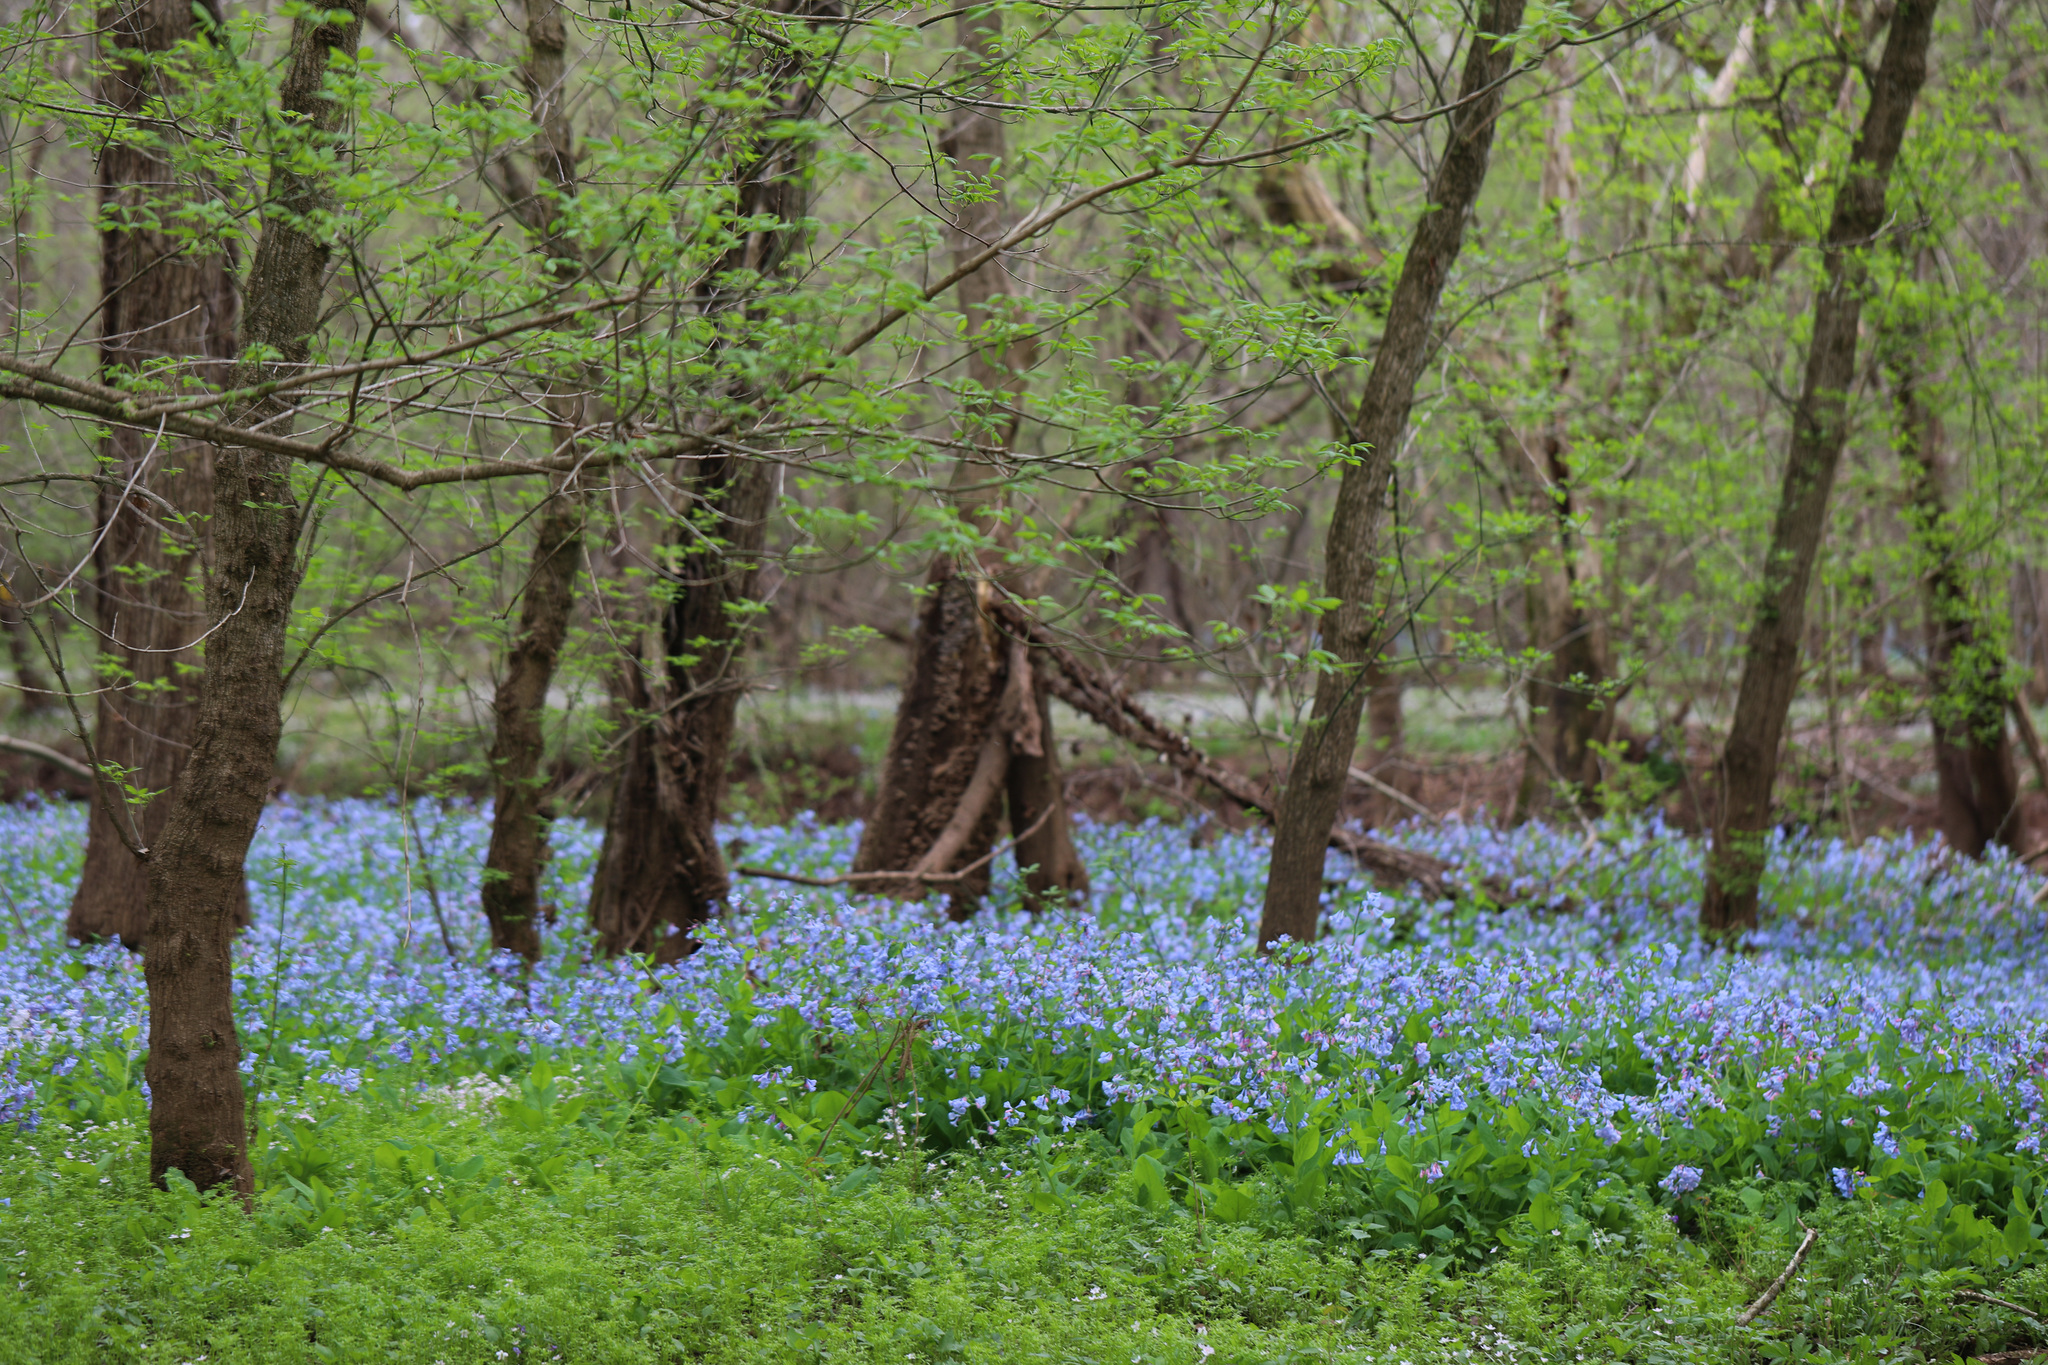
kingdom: Plantae
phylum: Tracheophyta
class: Magnoliopsida
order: Boraginales
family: Boraginaceae
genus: Mertensia
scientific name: Mertensia virginica
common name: Virginia bluebells
